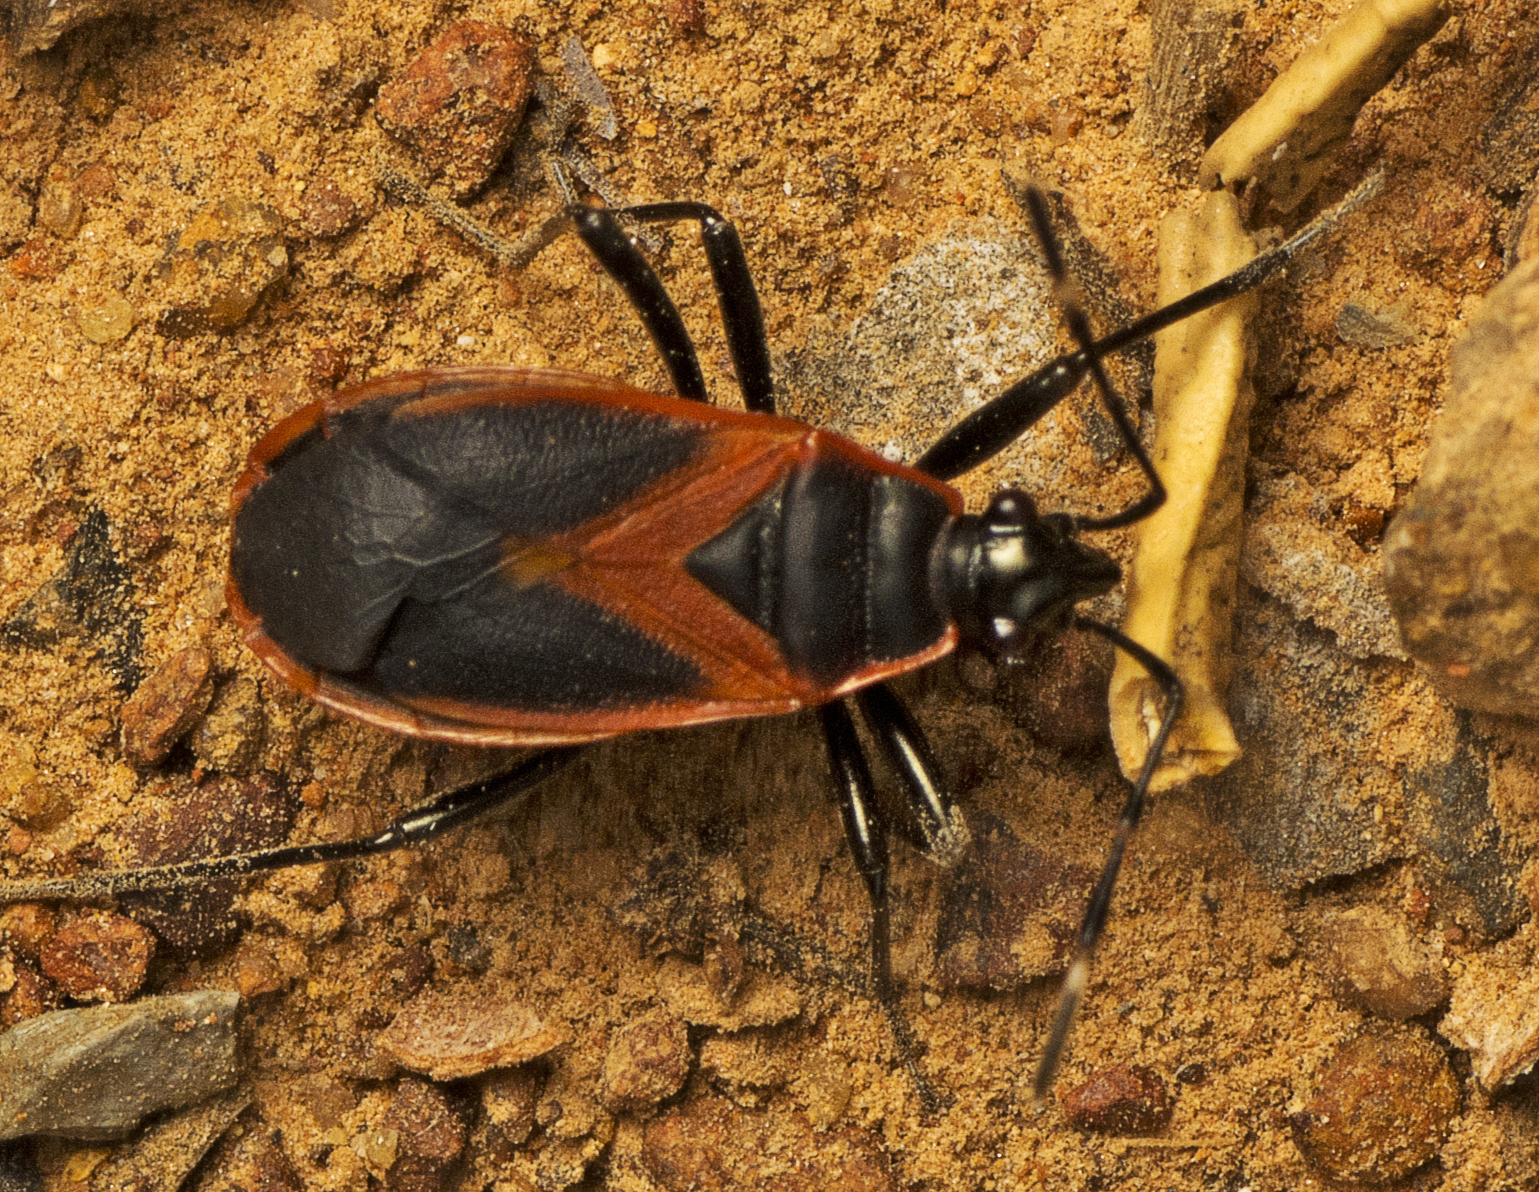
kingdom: Animalia
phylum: Arthropoda
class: Insecta
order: Hemiptera
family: Pyrrhocoridae
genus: Dindymus
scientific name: Dindymus
